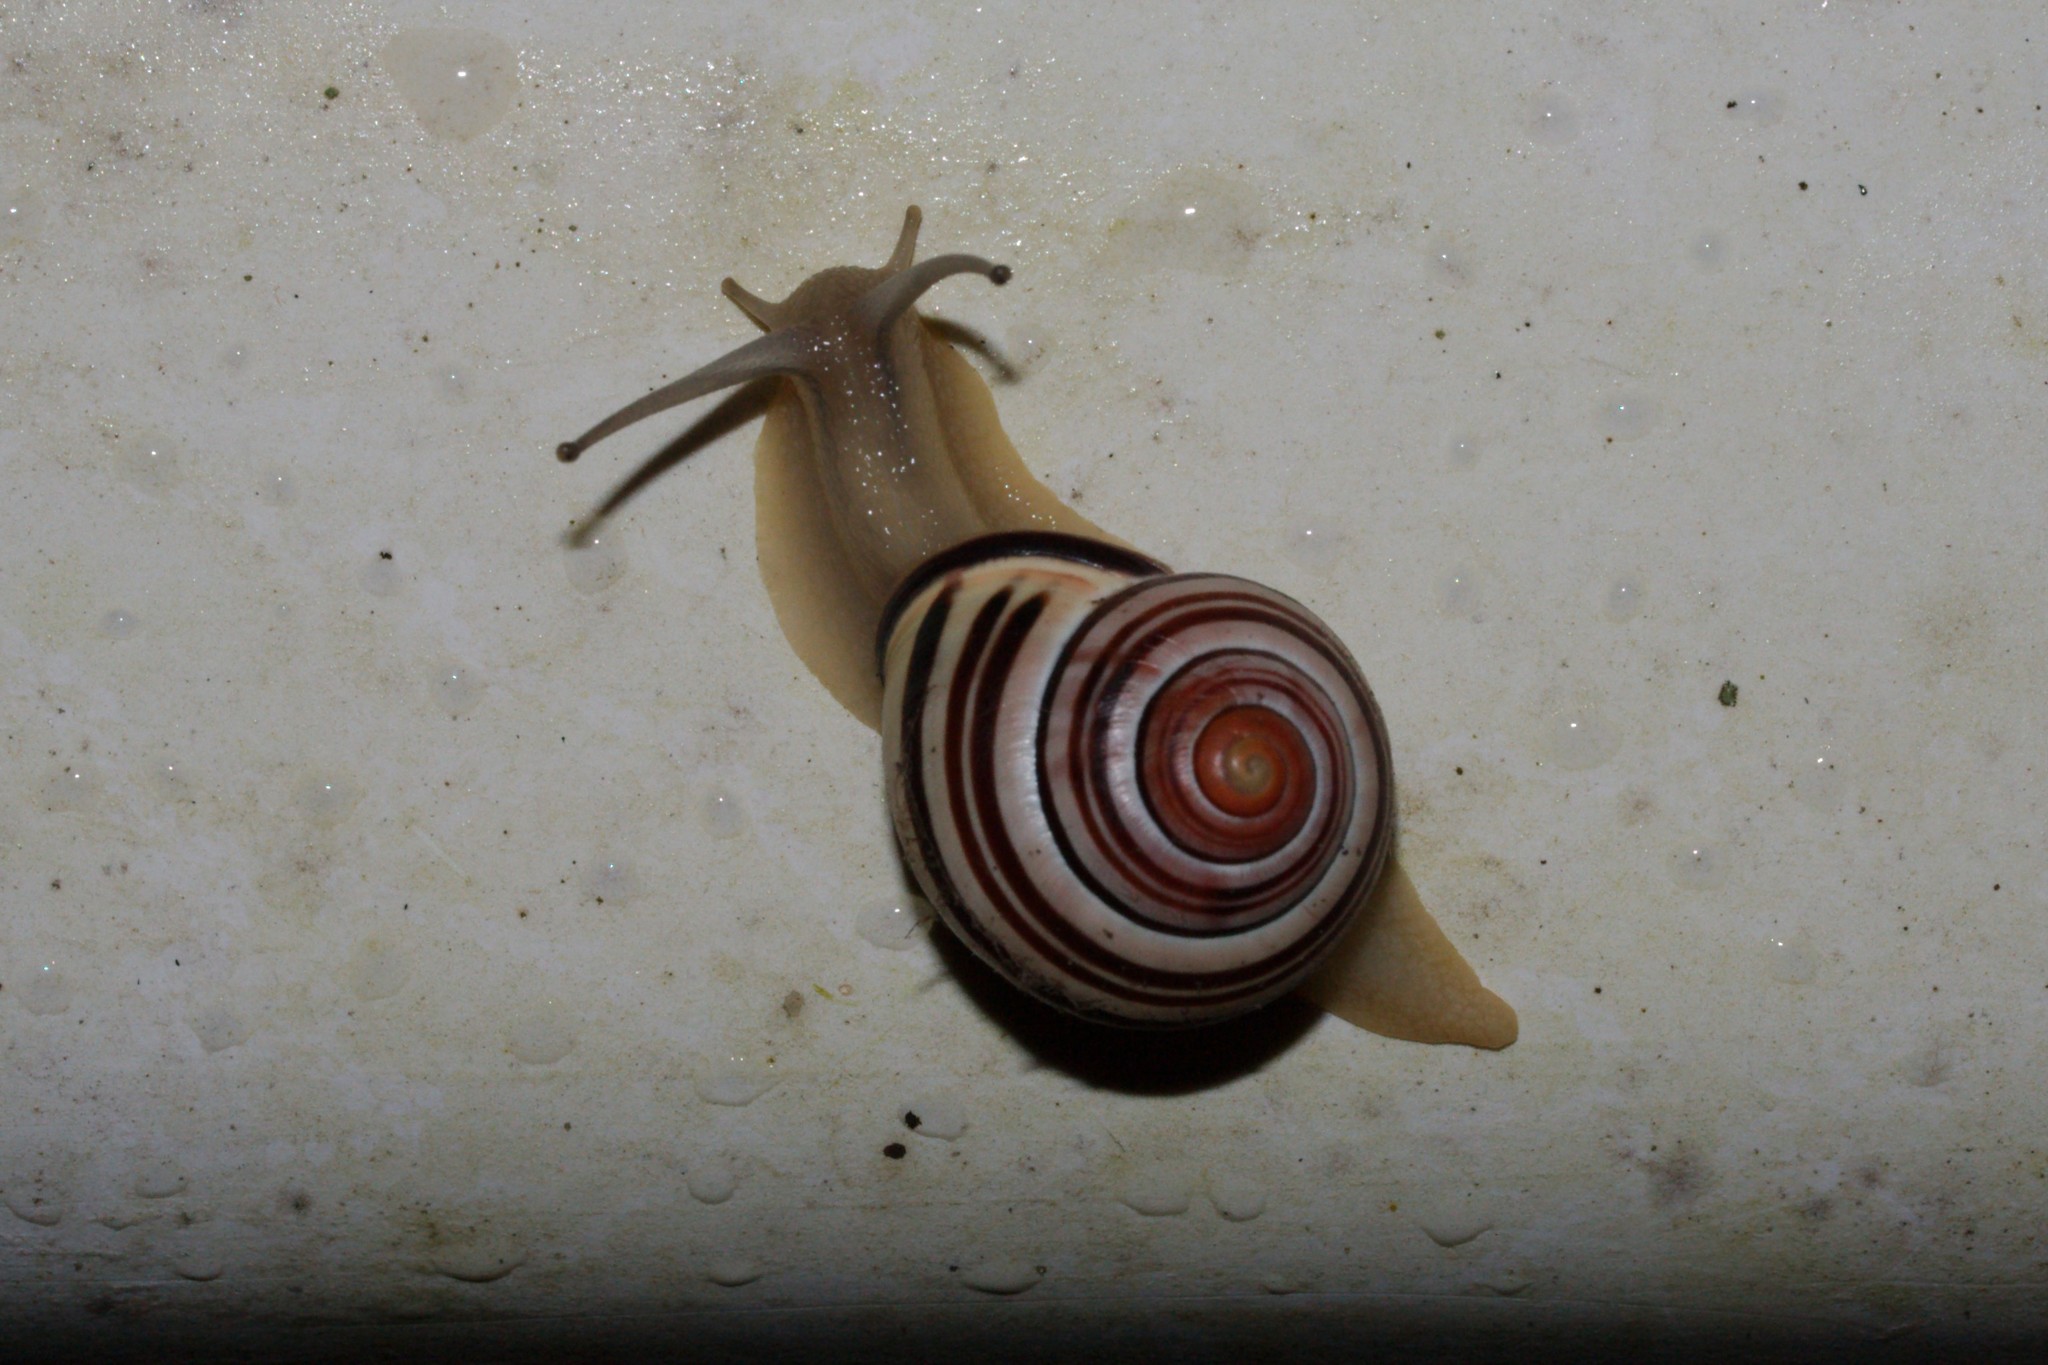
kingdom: Animalia
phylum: Mollusca
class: Gastropoda
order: Stylommatophora
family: Helicidae
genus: Cepaea
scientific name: Cepaea nemoralis
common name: Grovesnail
